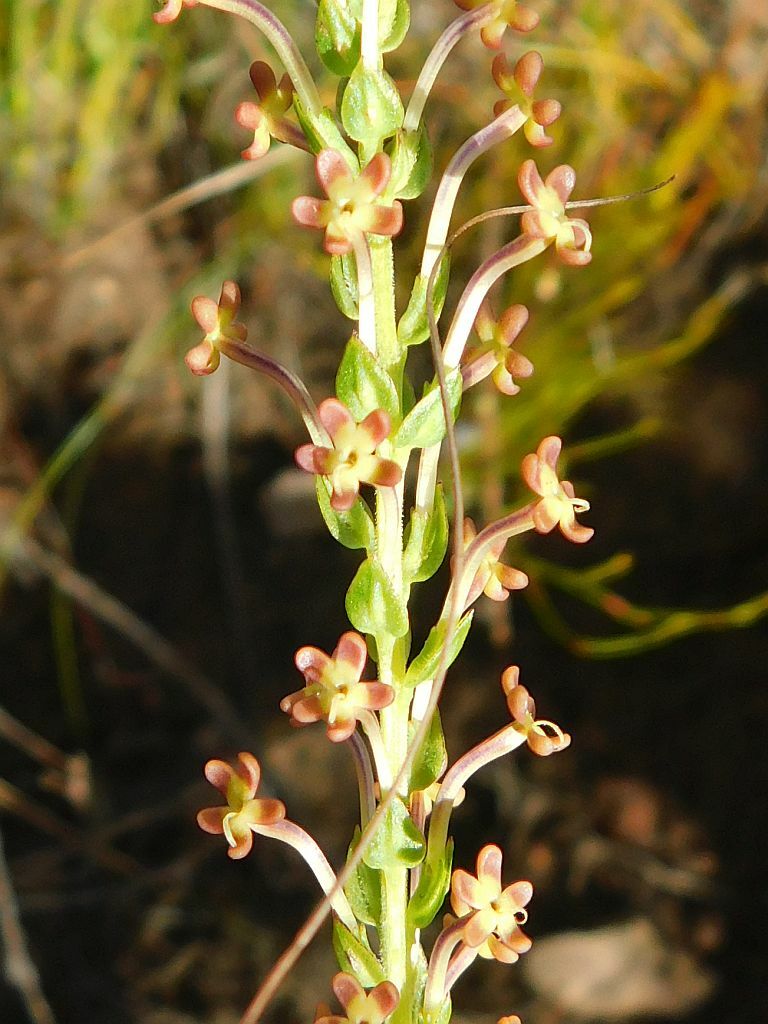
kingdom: Plantae
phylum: Tracheophyta
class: Magnoliopsida
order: Lamiales
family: Scrophulariaceae
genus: Microdon
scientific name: Microdon dubius
